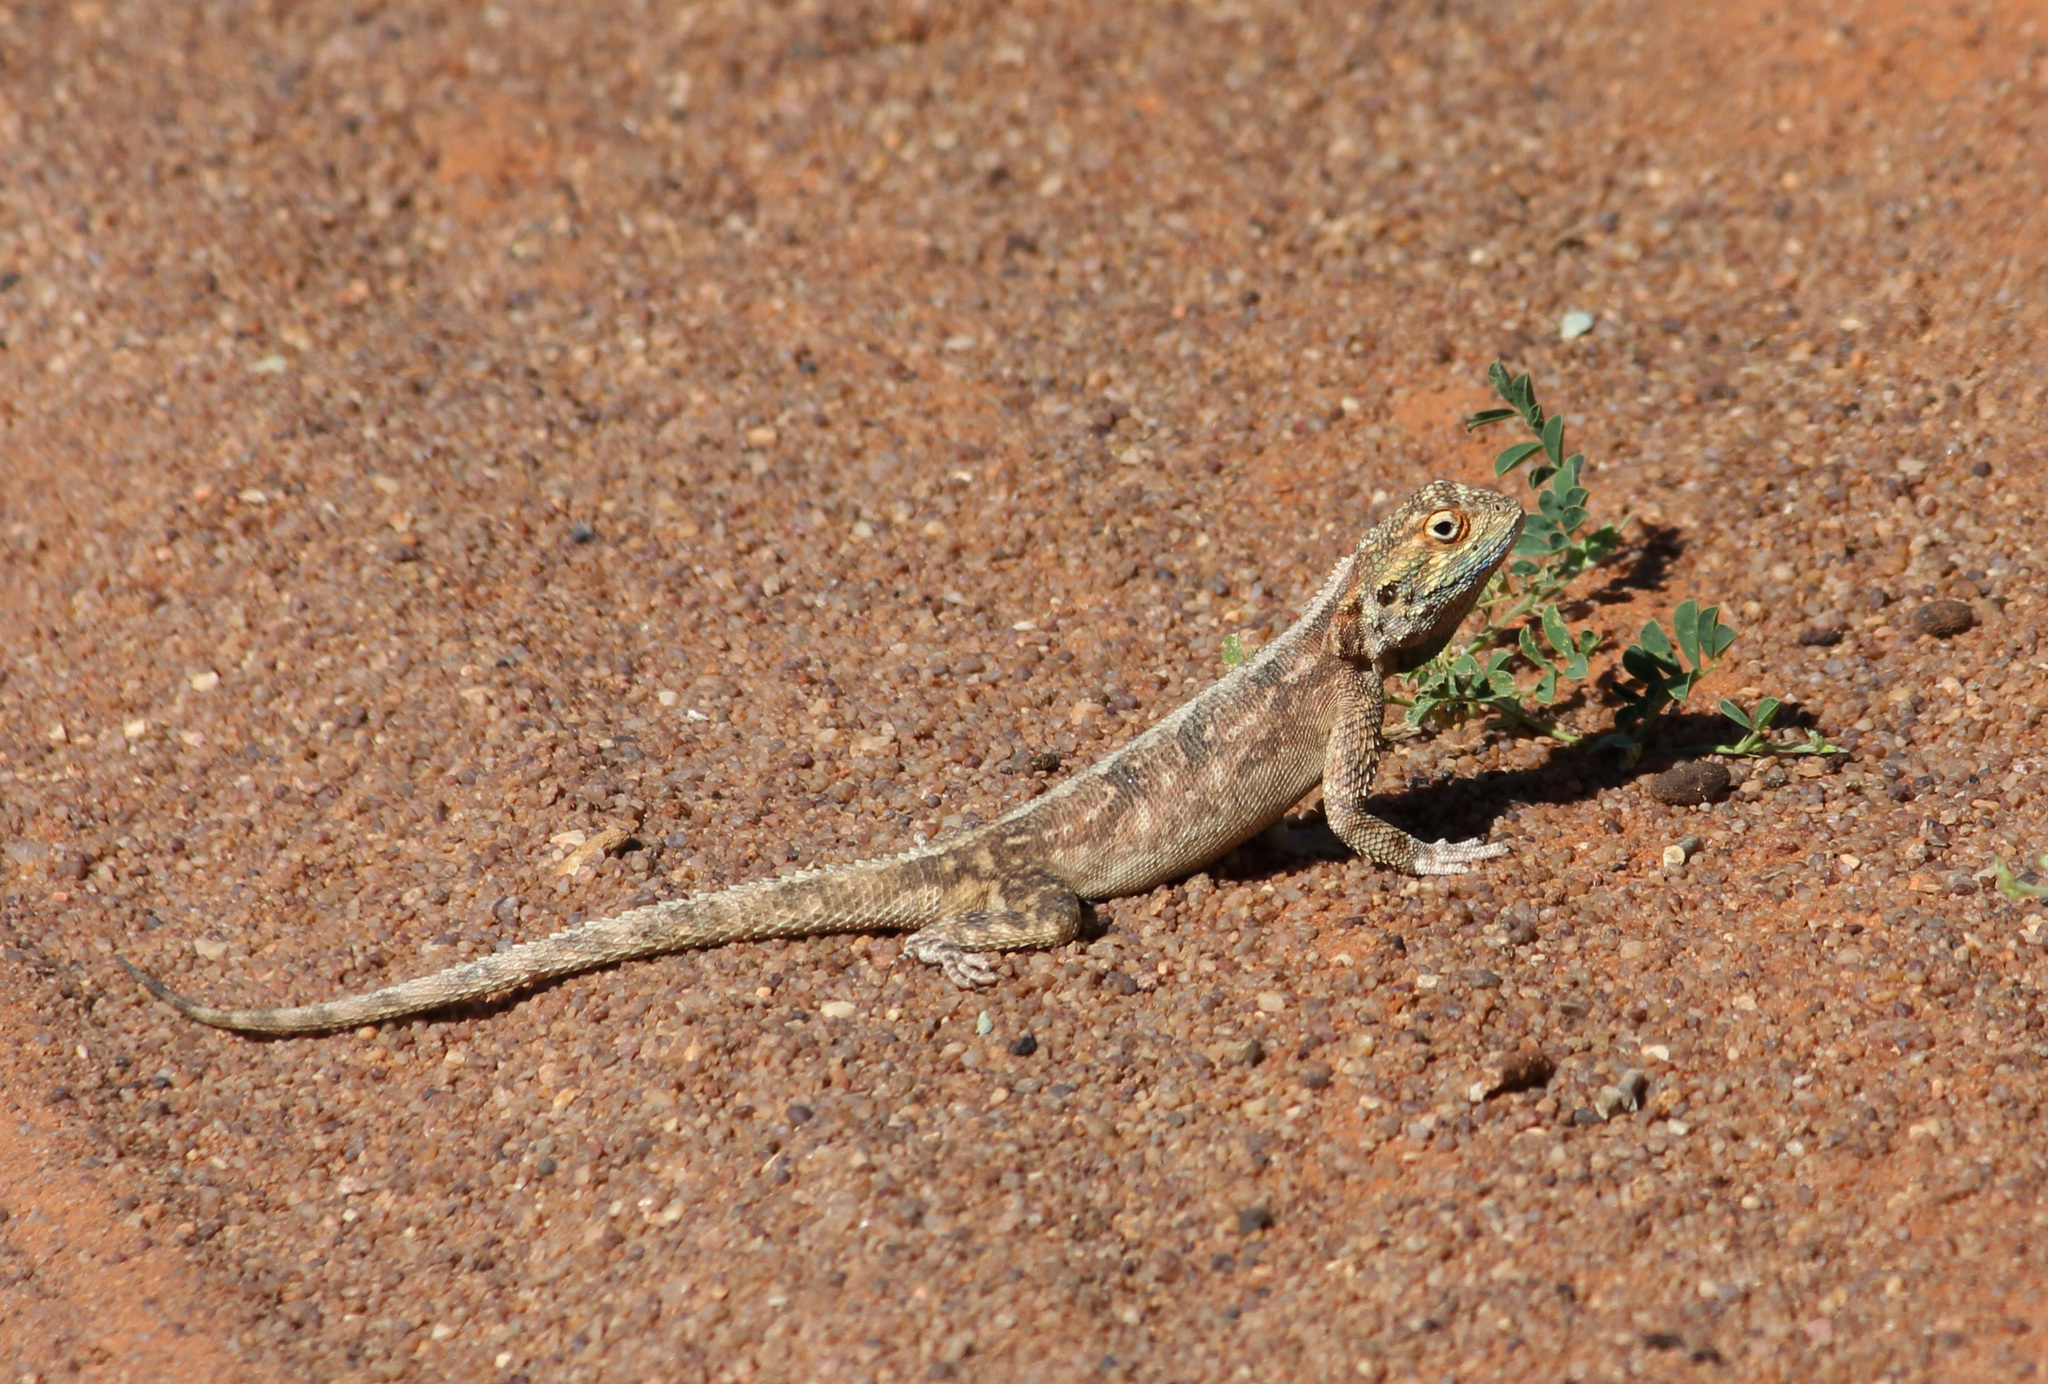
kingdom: Animalia
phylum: Chordata
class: Squamata
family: Agamidae
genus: Agama
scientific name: Agama aculeata
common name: Common ground agama
